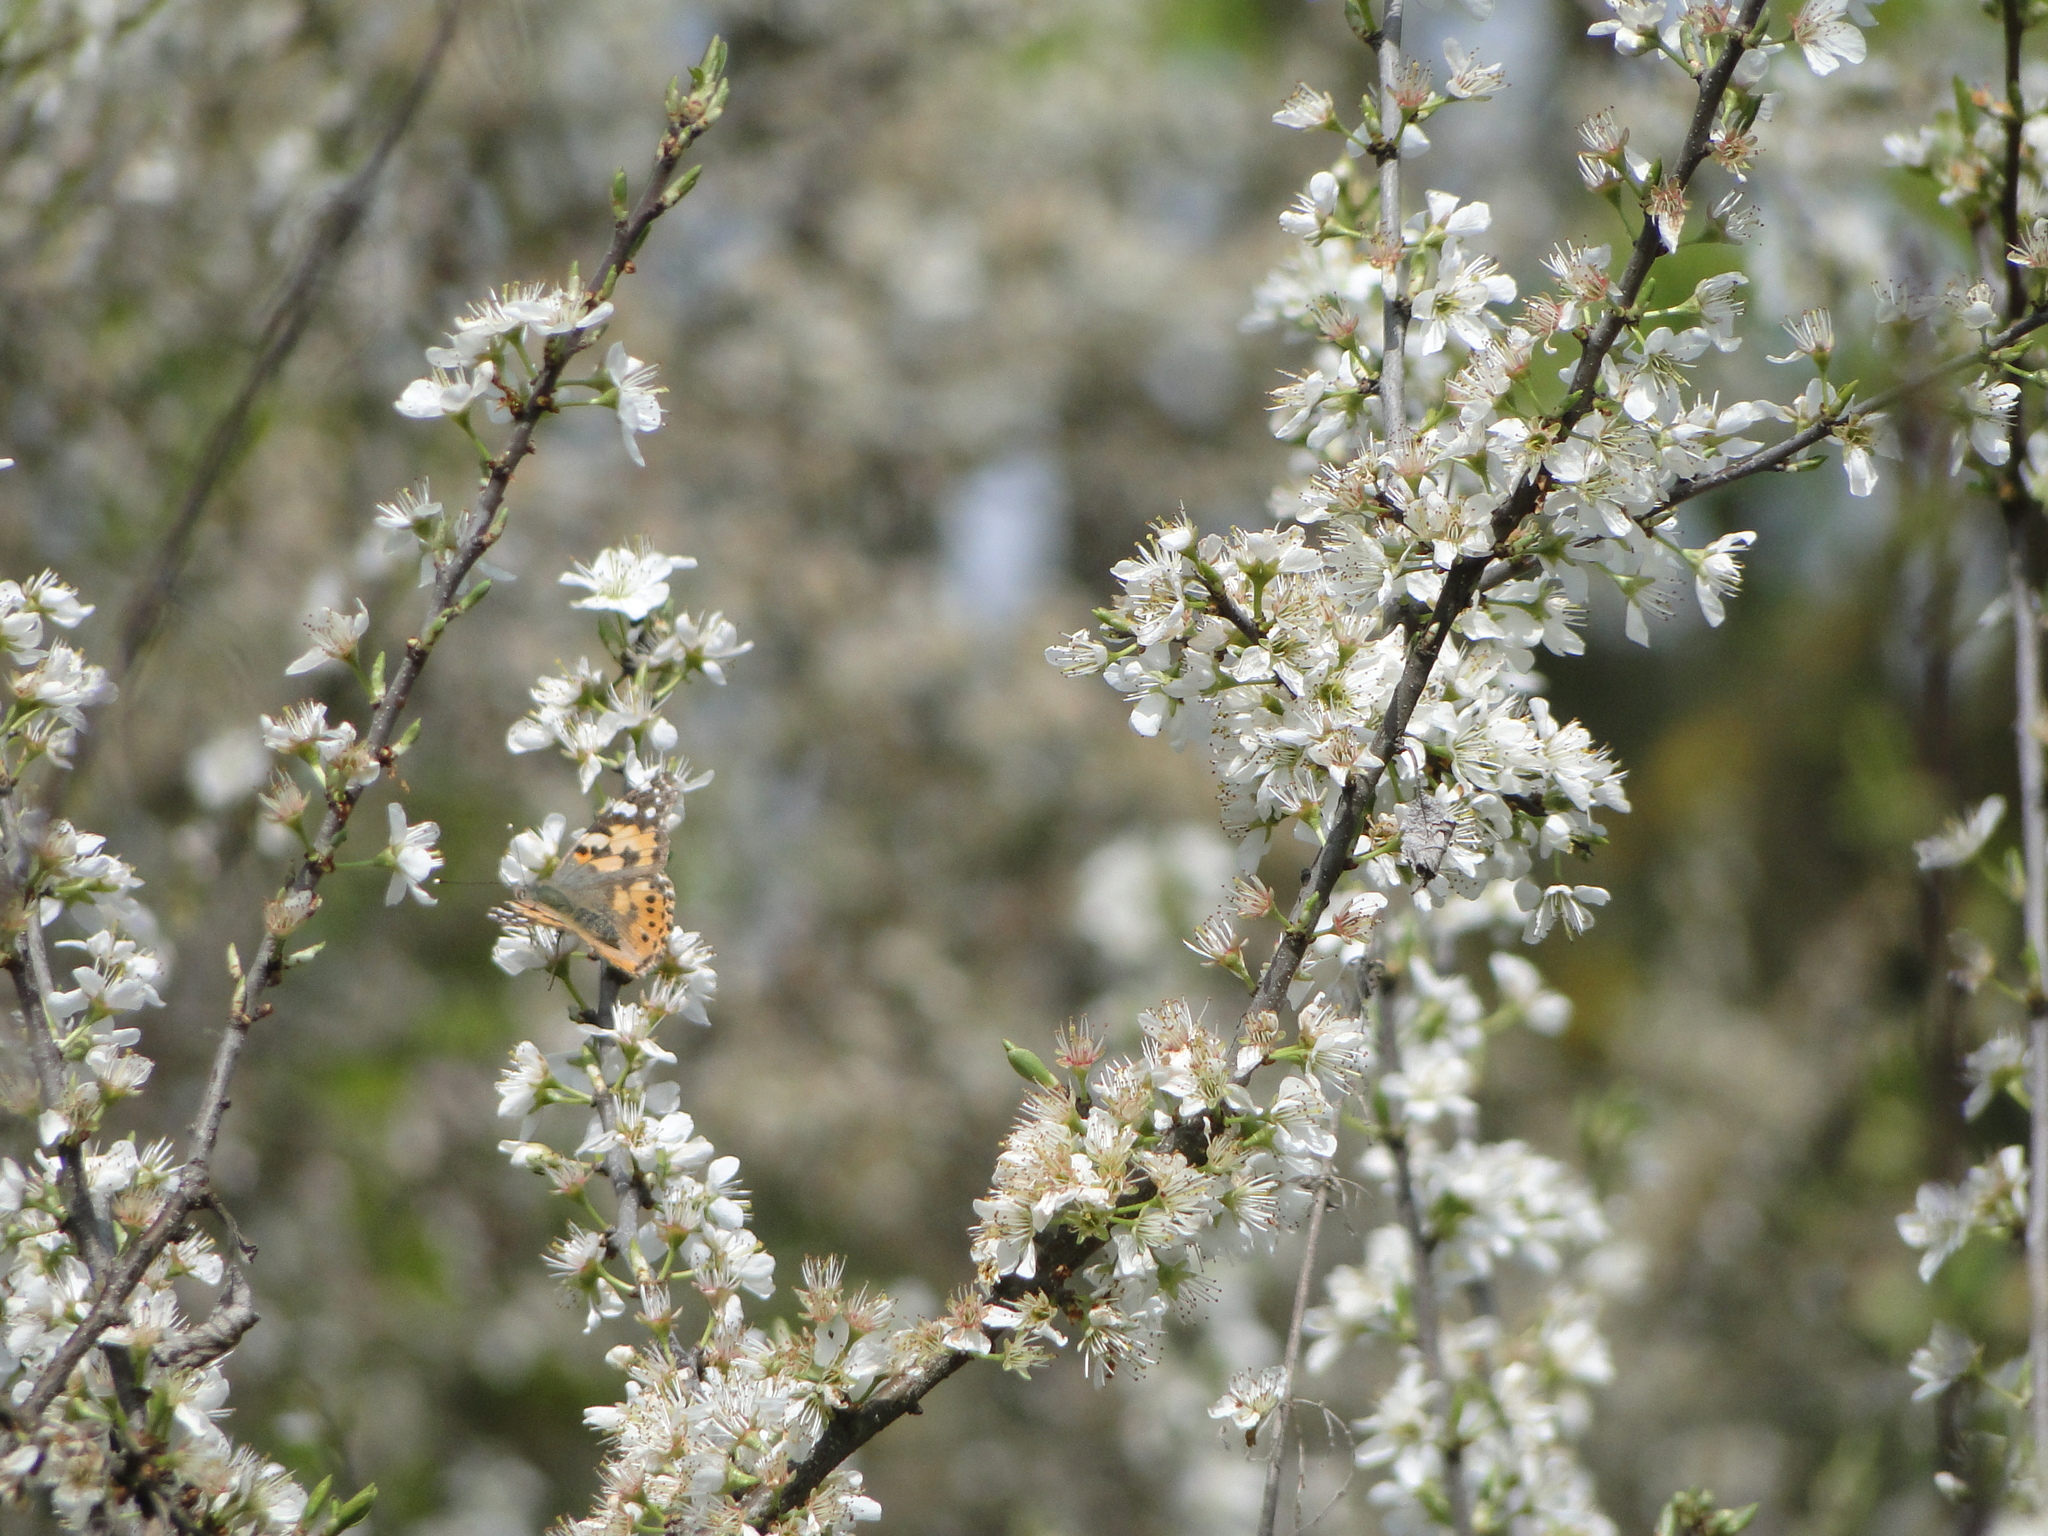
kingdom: Animalia
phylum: Arthropoda
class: Insecta
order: Lepidoptera
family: Nymphalidae
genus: Vanessa
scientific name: Vanessa cardui
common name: Painted lady
